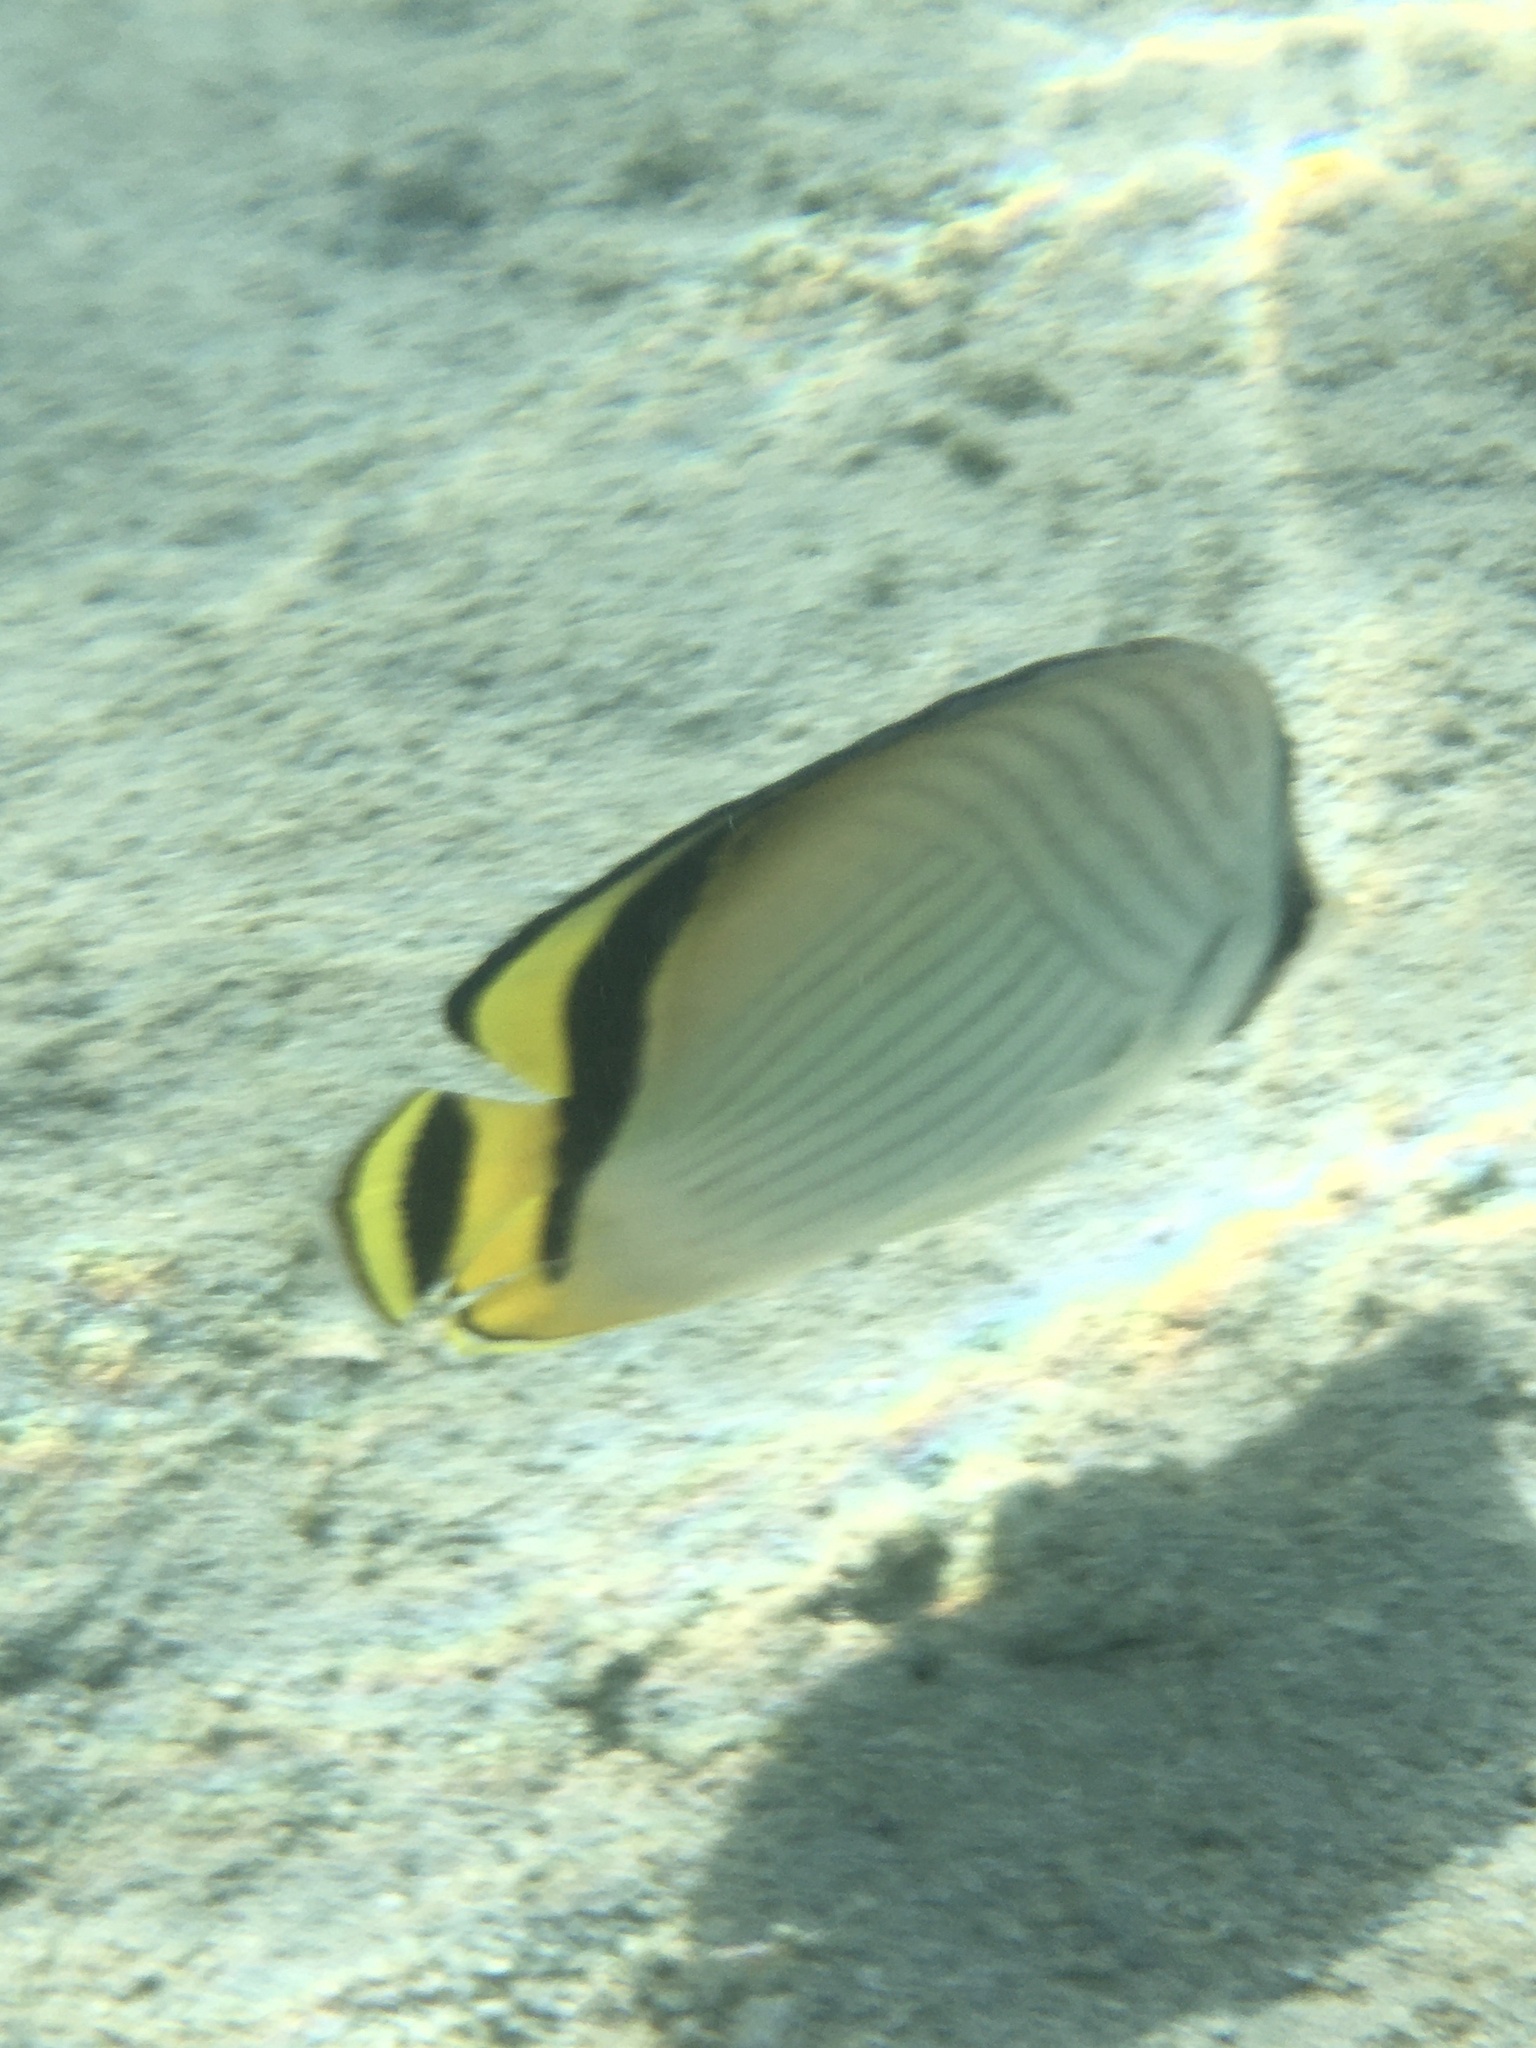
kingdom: Animalia
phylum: Chordata
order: Perciformes
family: Chaetodontidae
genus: Chaetodon
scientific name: Chaetodon vagabundus
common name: Vagabond butterflyfish
